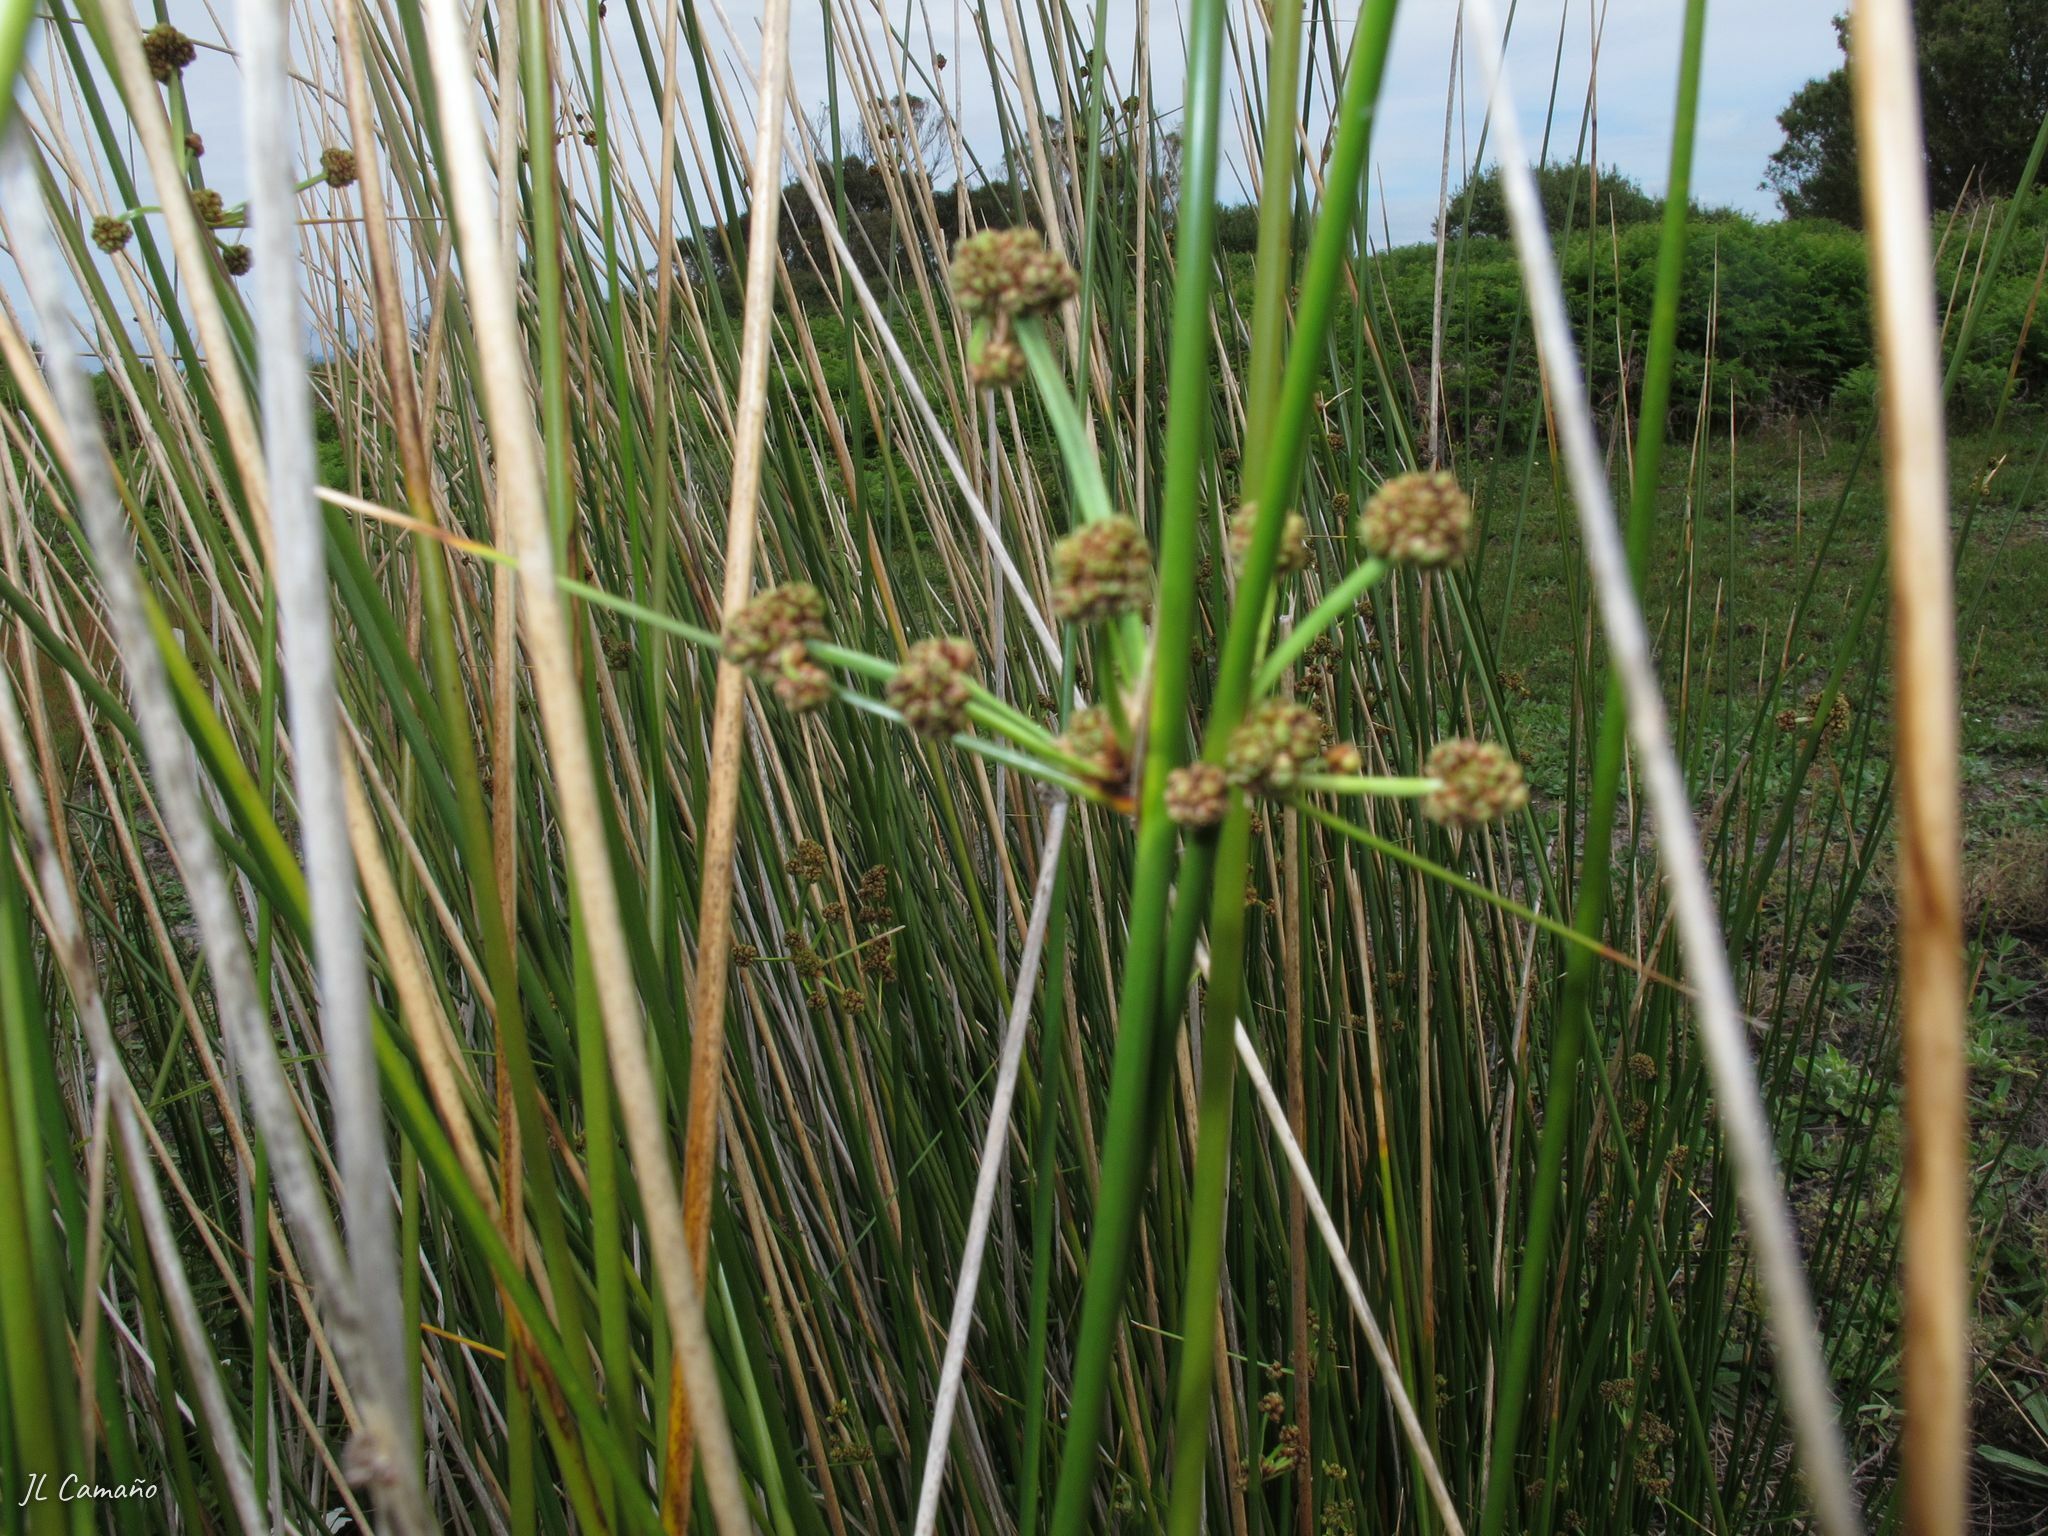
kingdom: Plantae
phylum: Tracheophyta
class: Liliopsida
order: Poales
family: Cyperaceae
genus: Scirpoides
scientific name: Scirpoides holoschoenus
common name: Round-headed club-rush
